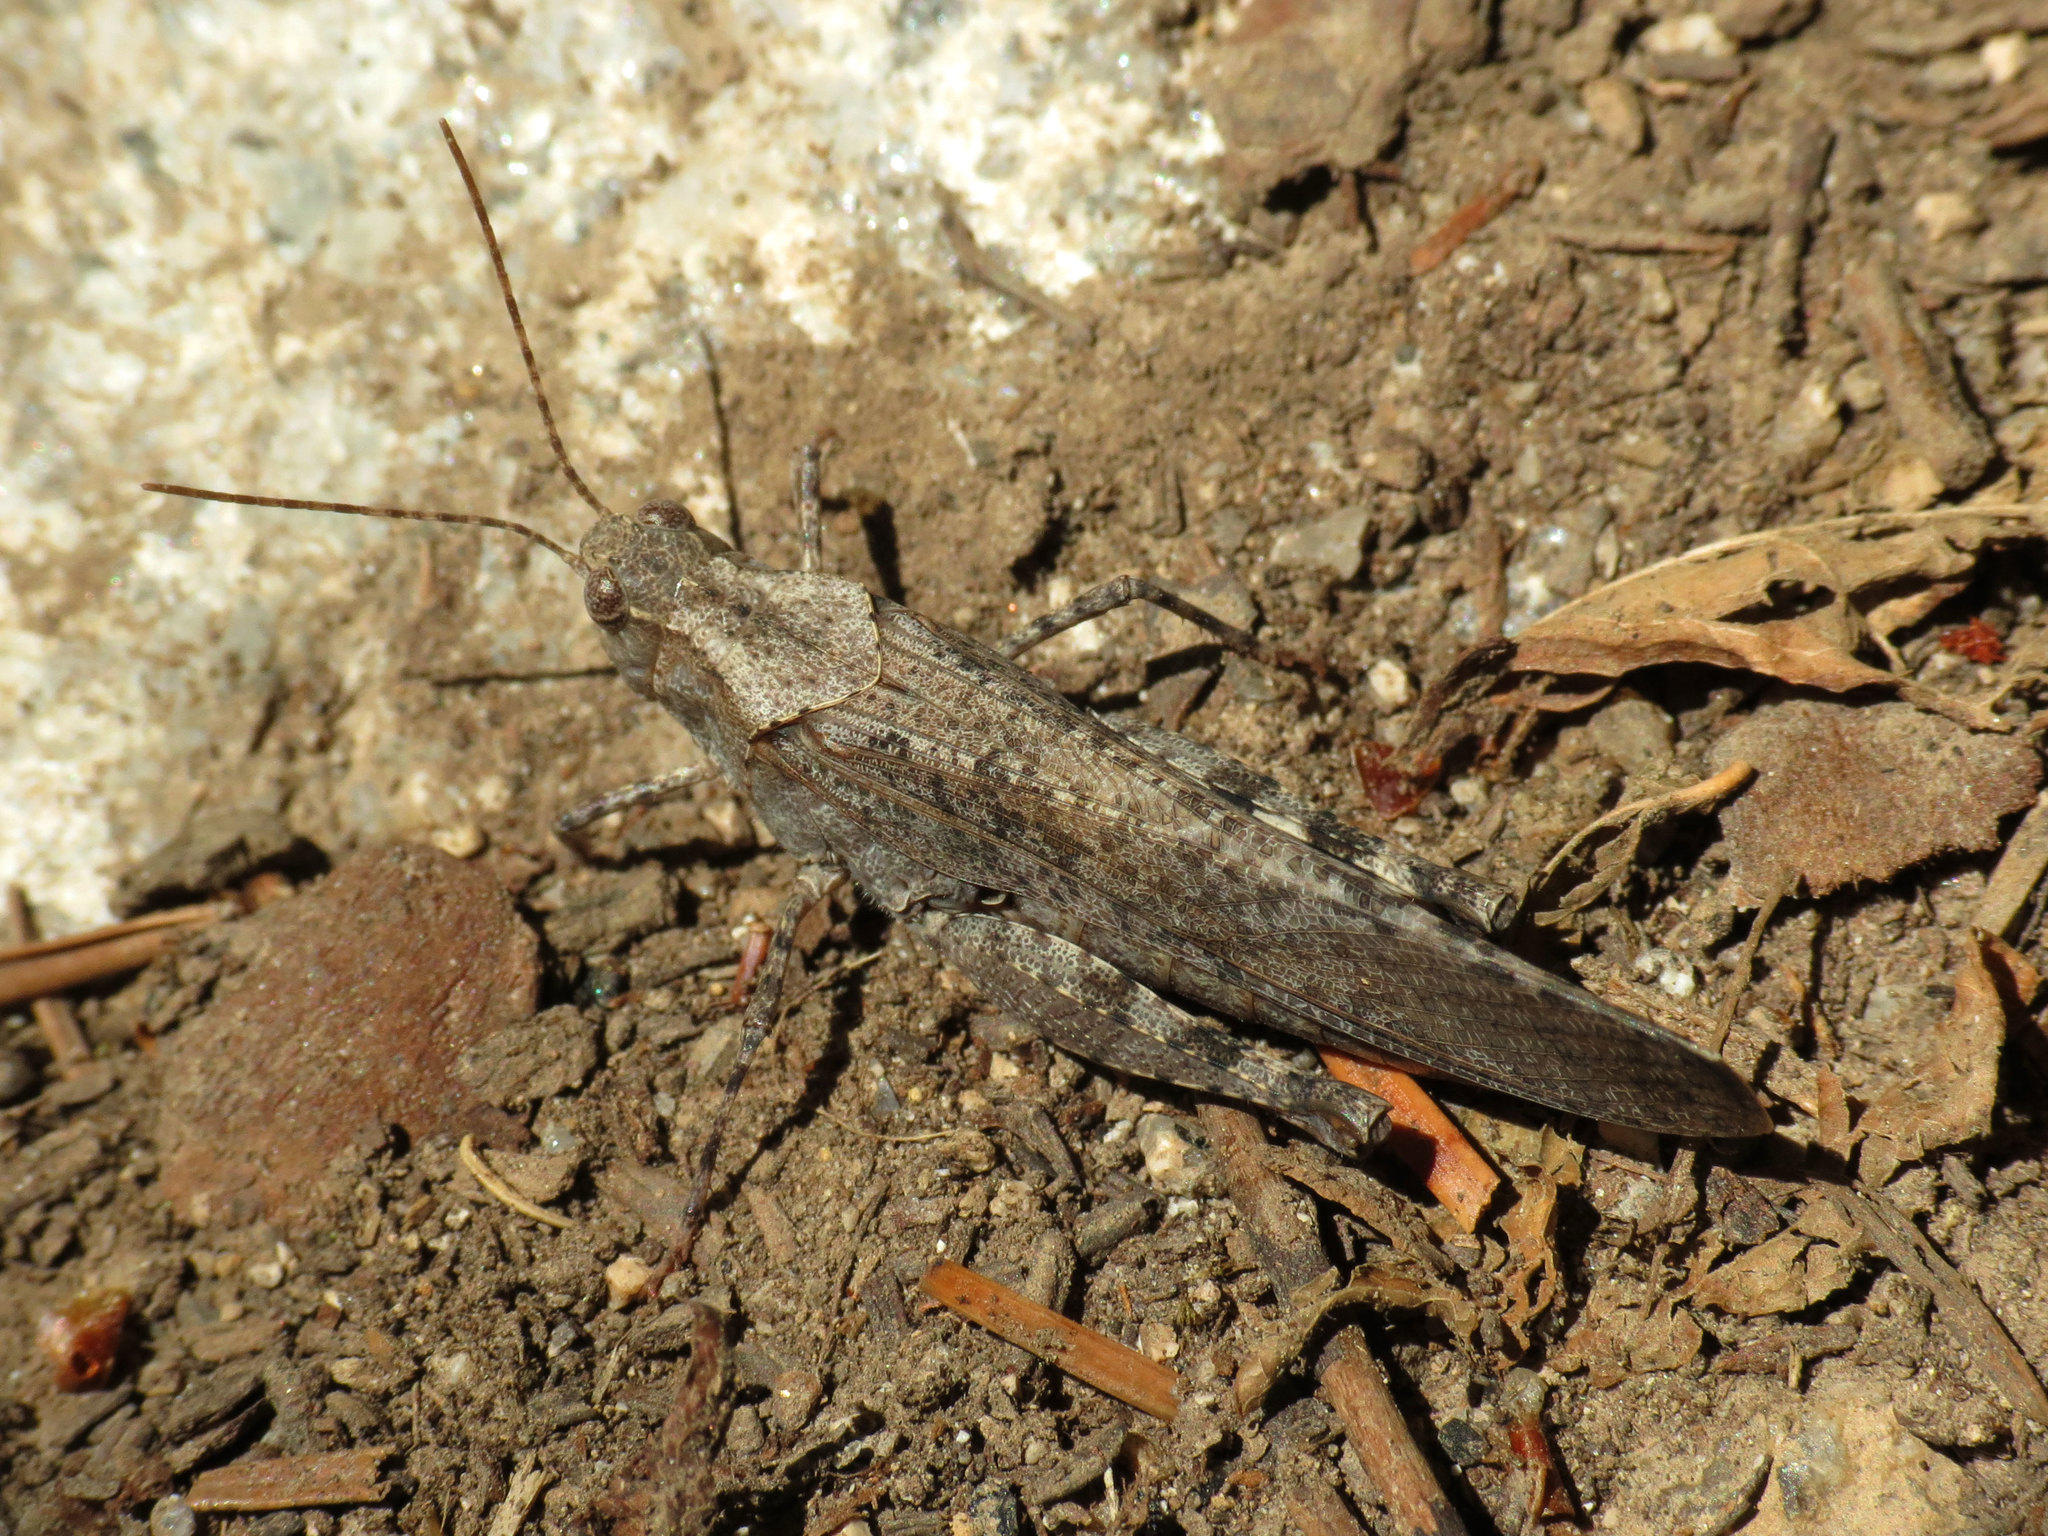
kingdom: Animalia
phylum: Arthropoda
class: Insecta
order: Orthoptera
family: Acrididae
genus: Trimerotropis
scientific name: Trimerotropis verruculata
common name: Crackling forest grasshopper
